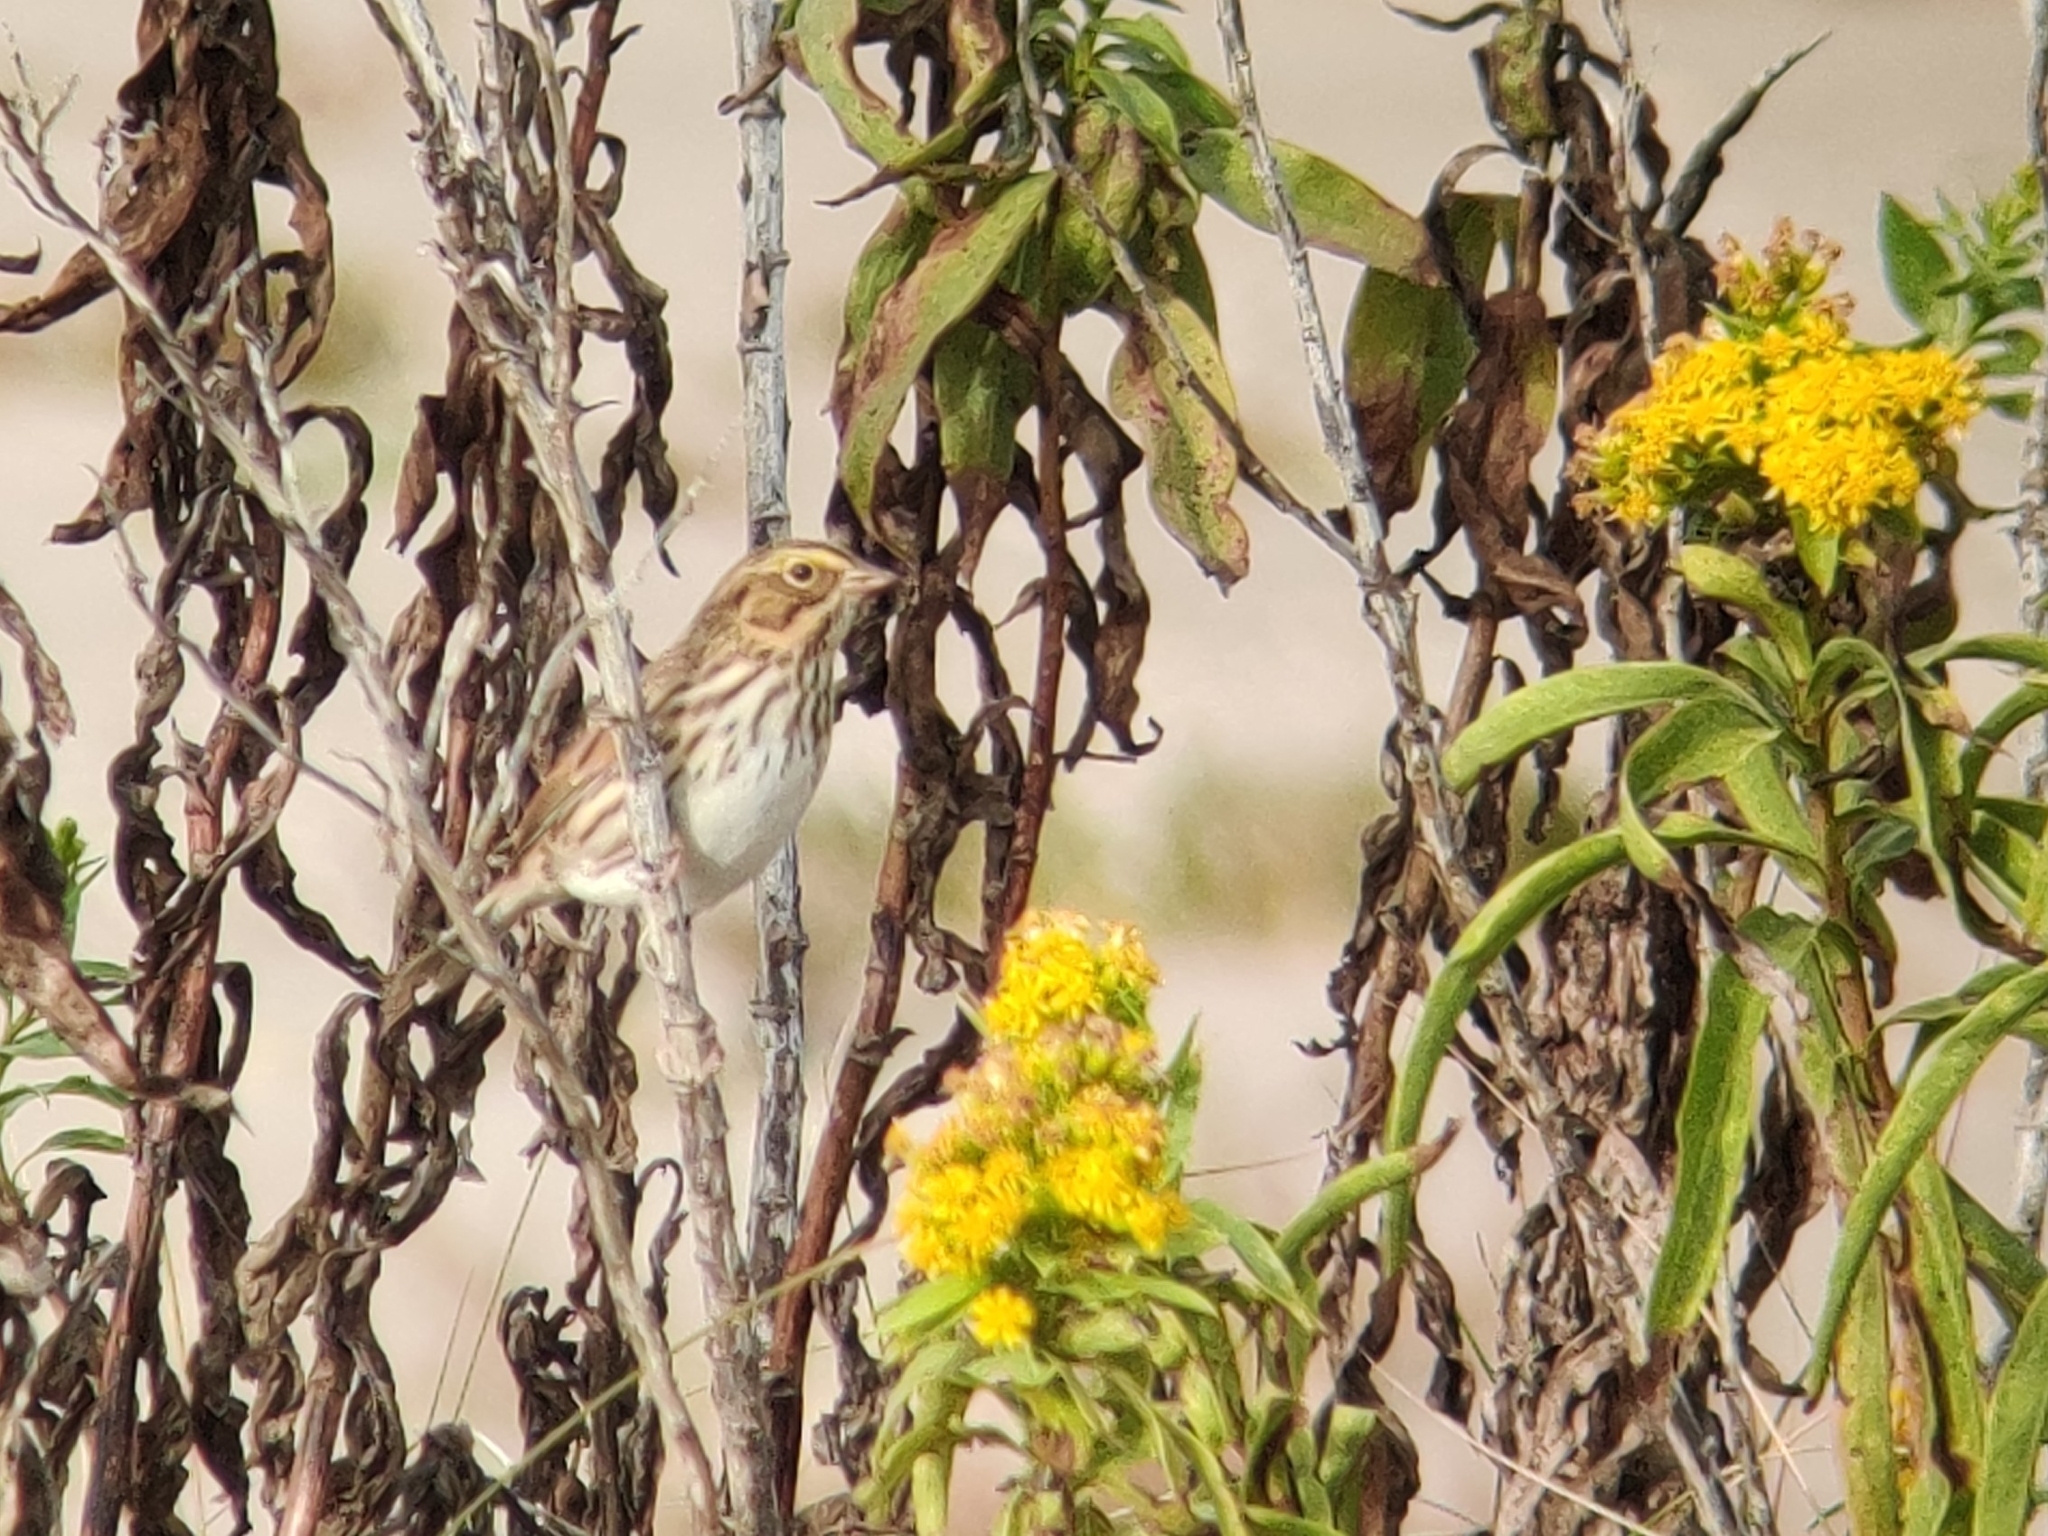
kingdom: Animalia
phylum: Chordata
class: Aves
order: Passeriformes
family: Passerellidae
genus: Passerculus
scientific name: Passerculus sandwichensis
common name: Savannah sparrow
